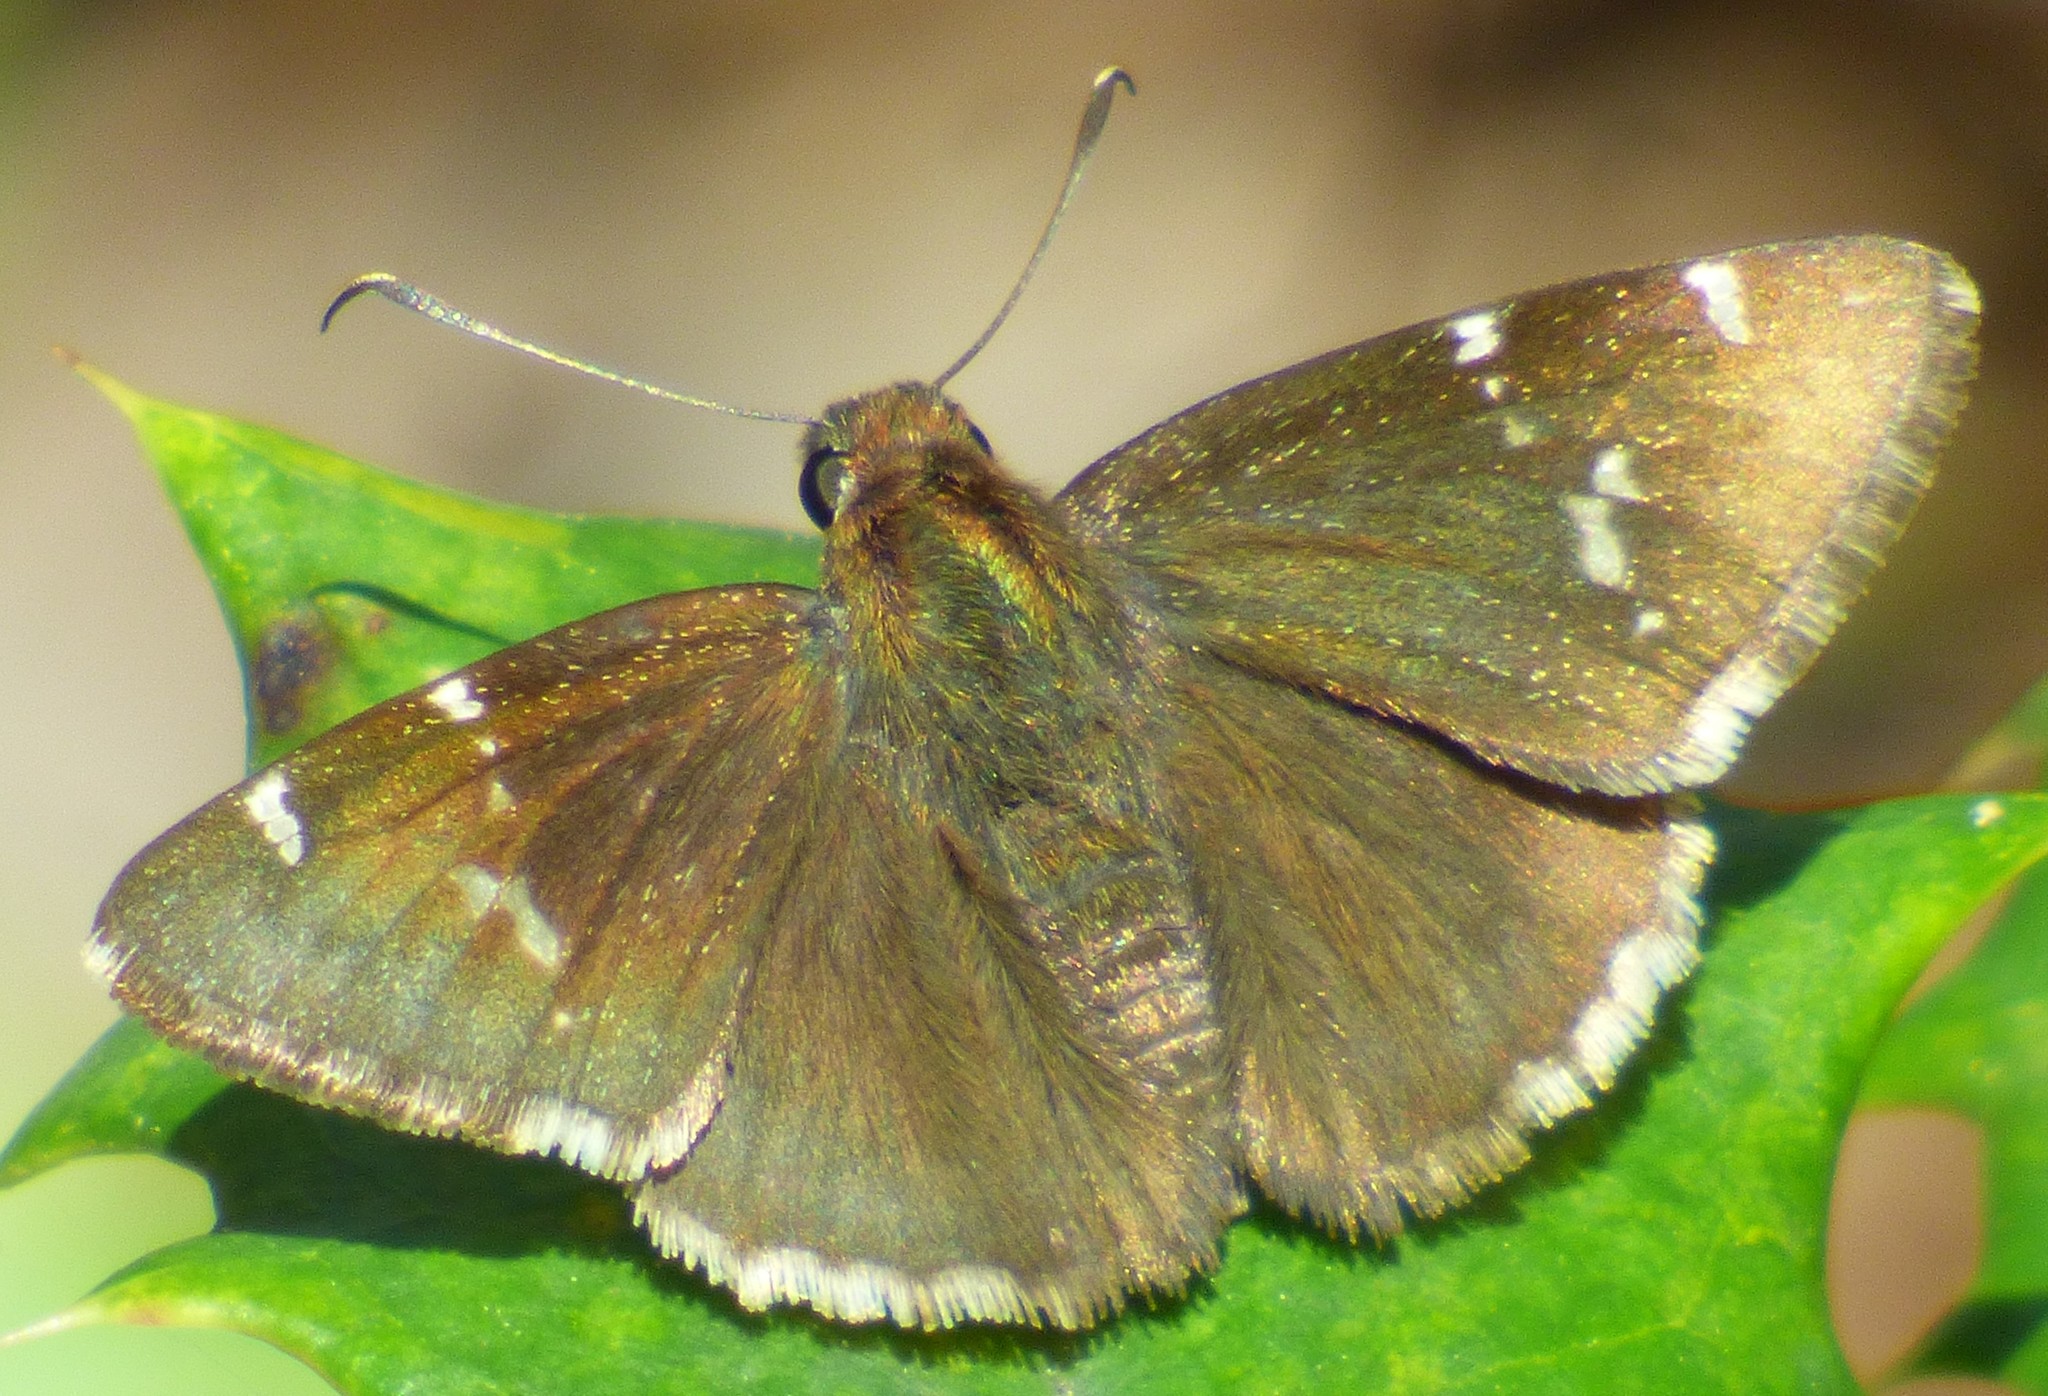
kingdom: Animalia
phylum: Arthropoda
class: Insecta
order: Lepidoptera
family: Hesperiidae
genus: Thorybes
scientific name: Thorybes daunus
